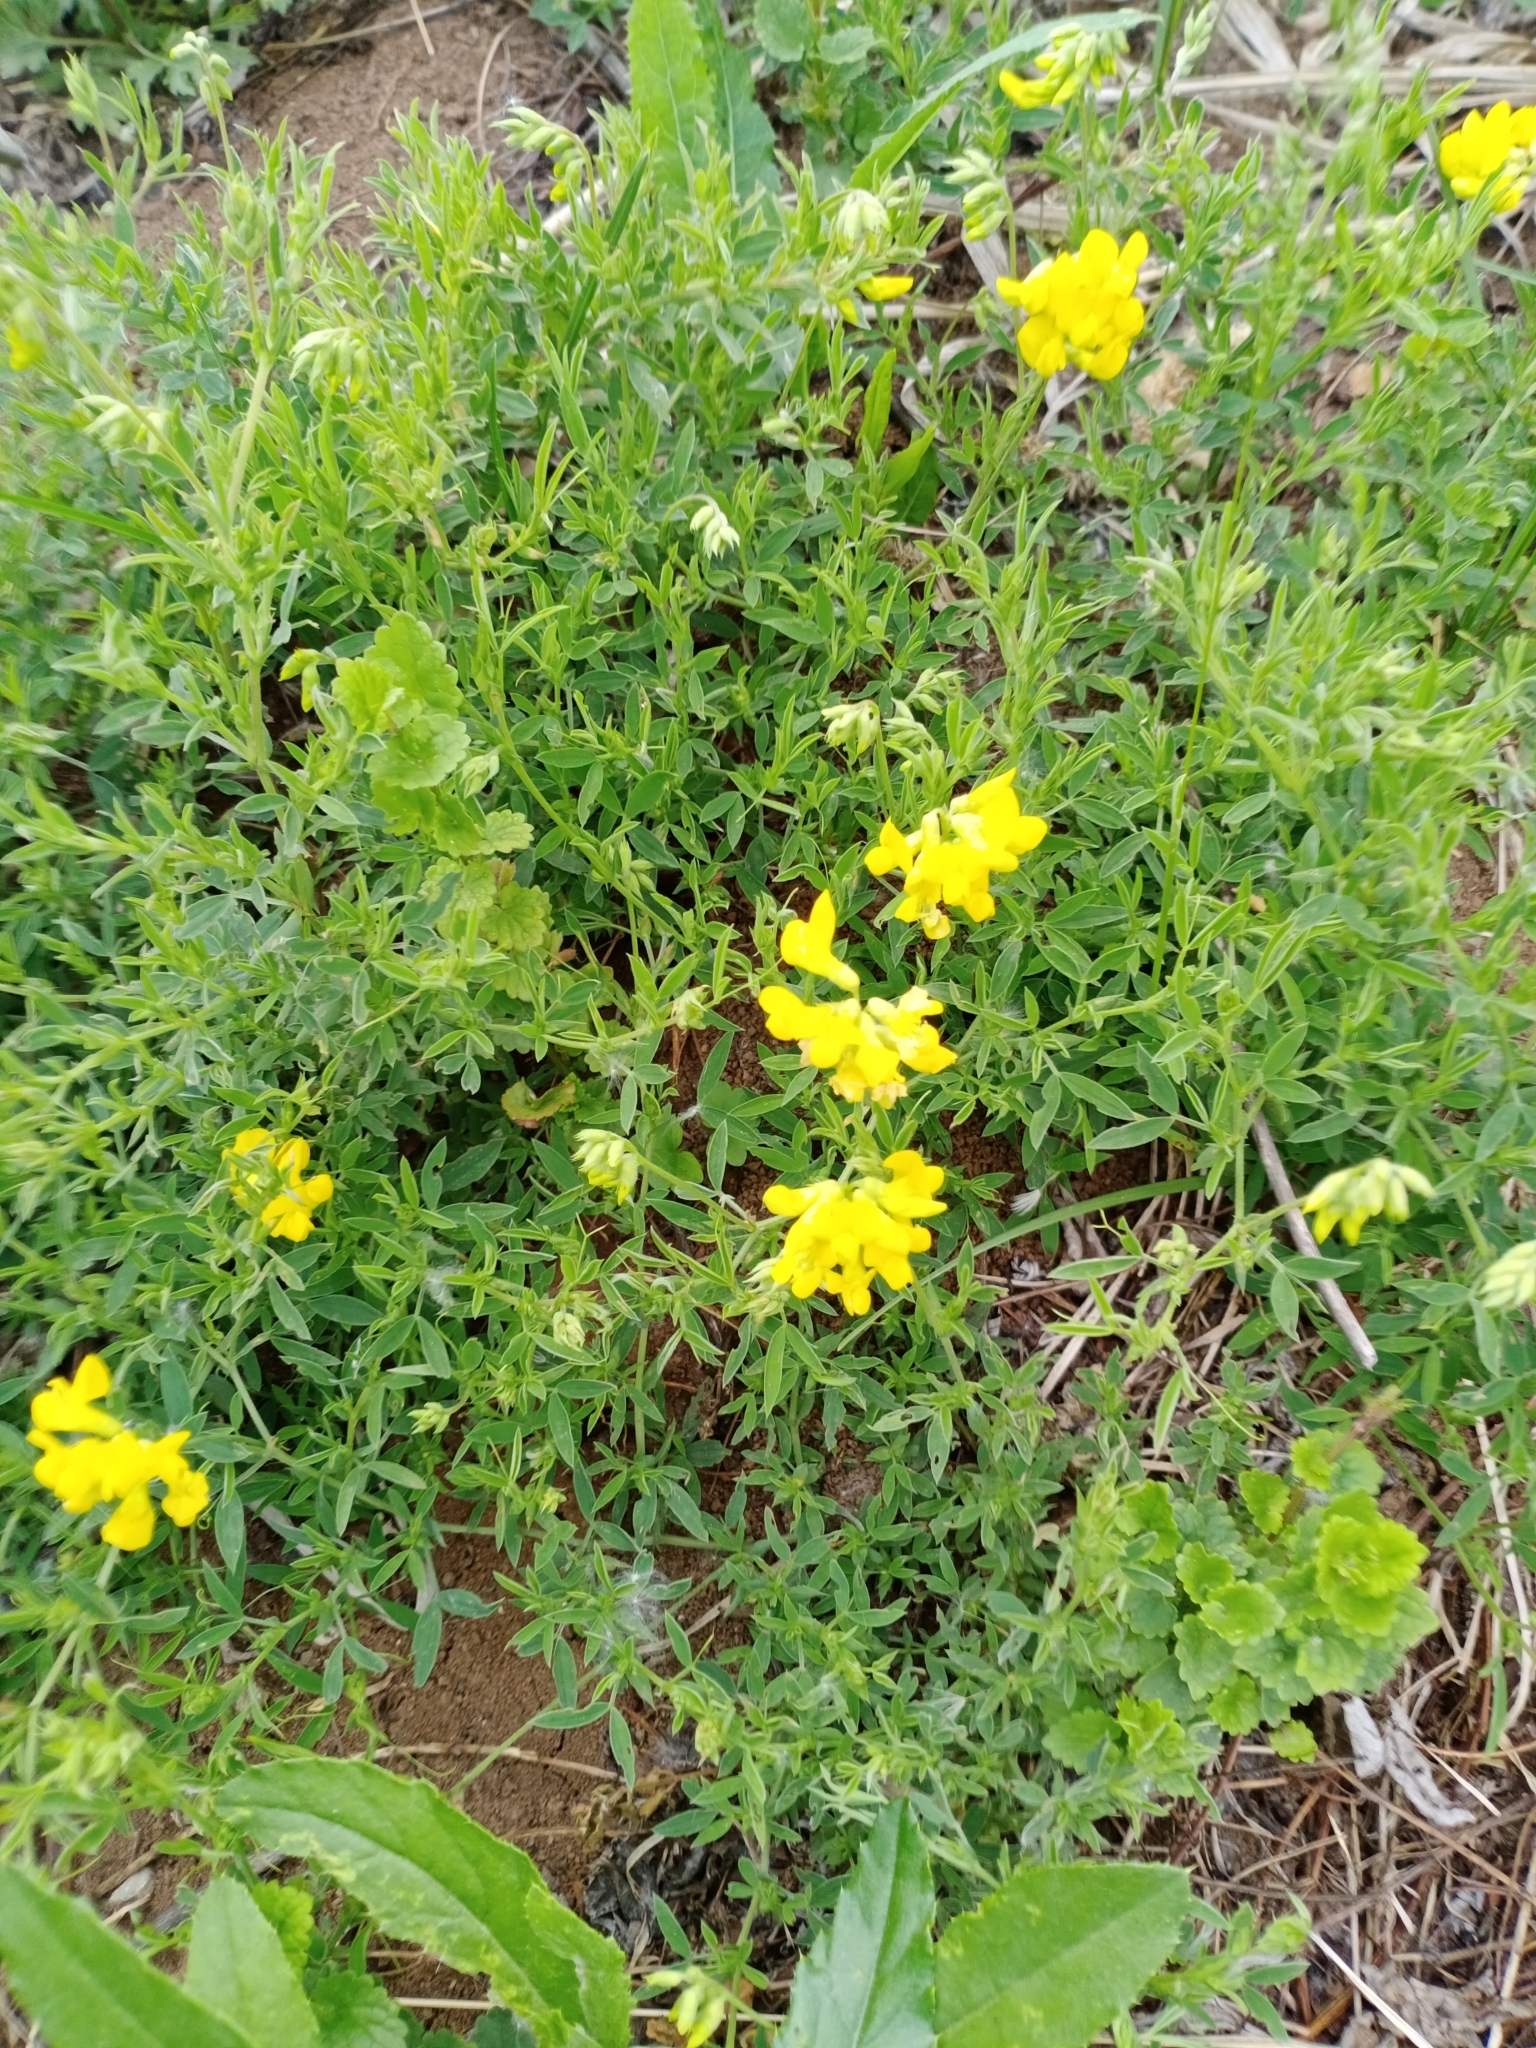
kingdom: Plantae
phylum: Tracheophyta
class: Magnoliopsida
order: Fabales
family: Fabaceae
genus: Lathyrus
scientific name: Lathyrus pratensis
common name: Meadow vetchling
